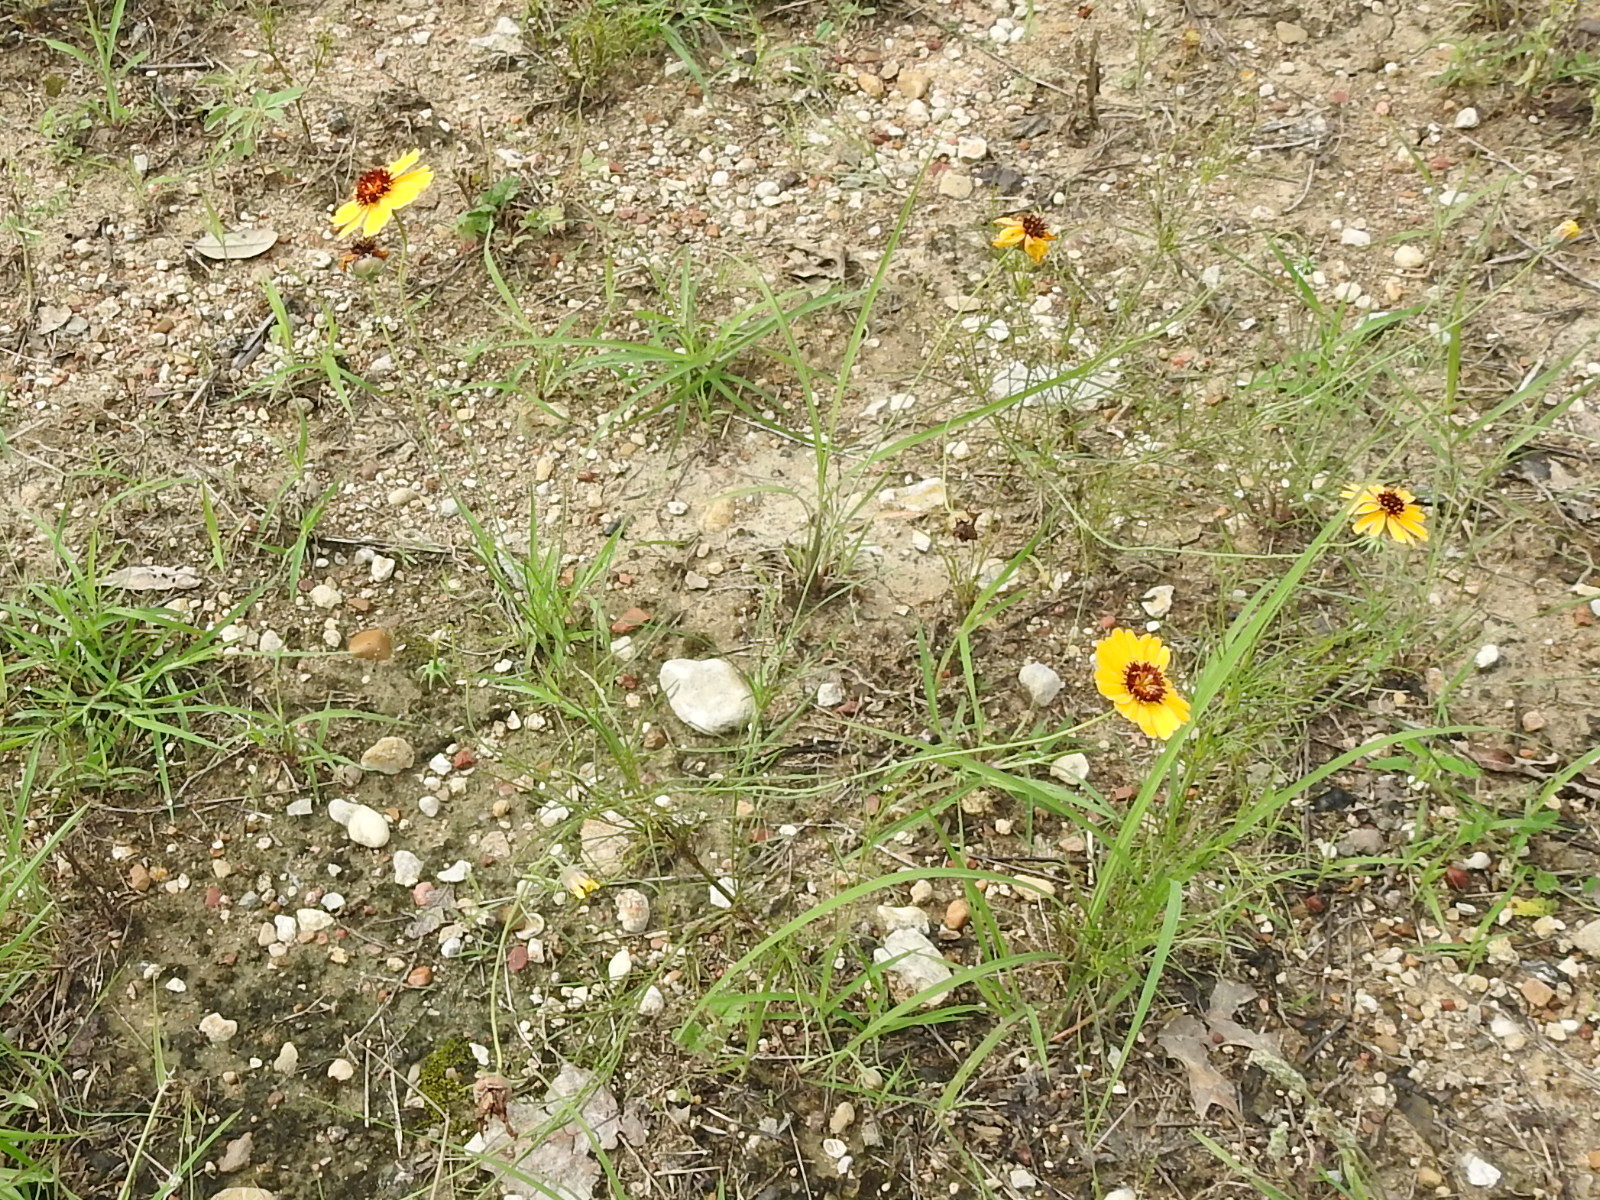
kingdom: Plantae
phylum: Tracheophyta
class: Magnoliopsida
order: Asterales
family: Asteraceae
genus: Thelesperma
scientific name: Thelesperma filifolium
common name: Stiff greenthread
